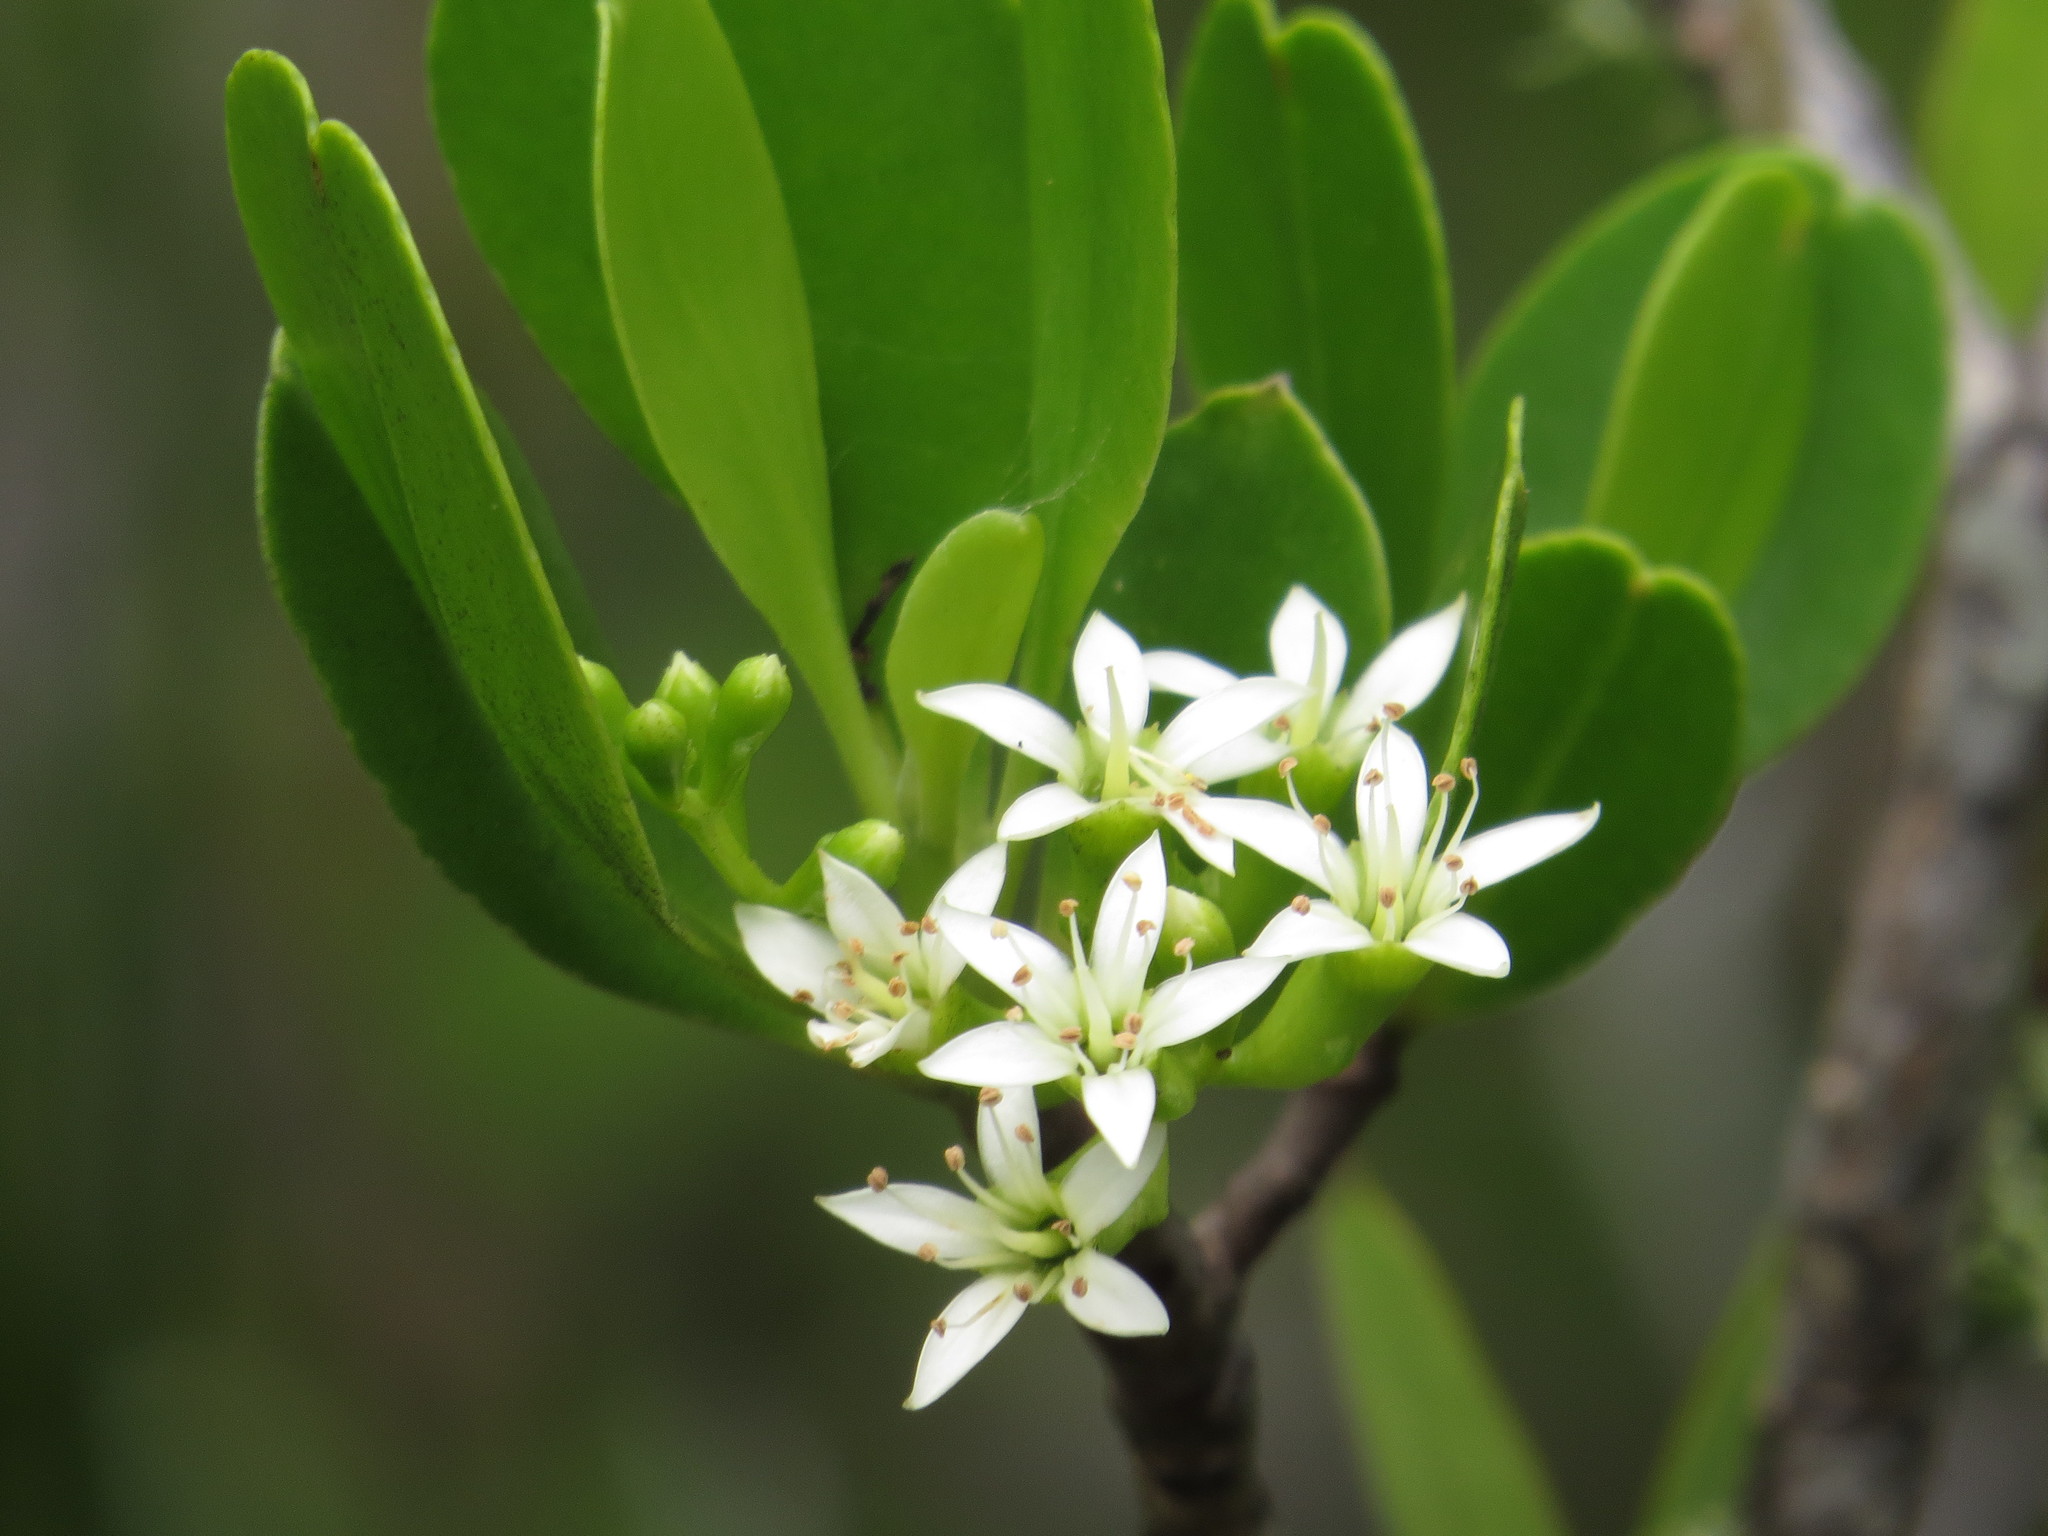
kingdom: Plantae
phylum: Tracheophyta
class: Magnoliopsida
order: Myrtales
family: Combretaceae
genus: Lumnitzera
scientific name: Lumnitzera racemosa
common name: White-flowered black mangrove
